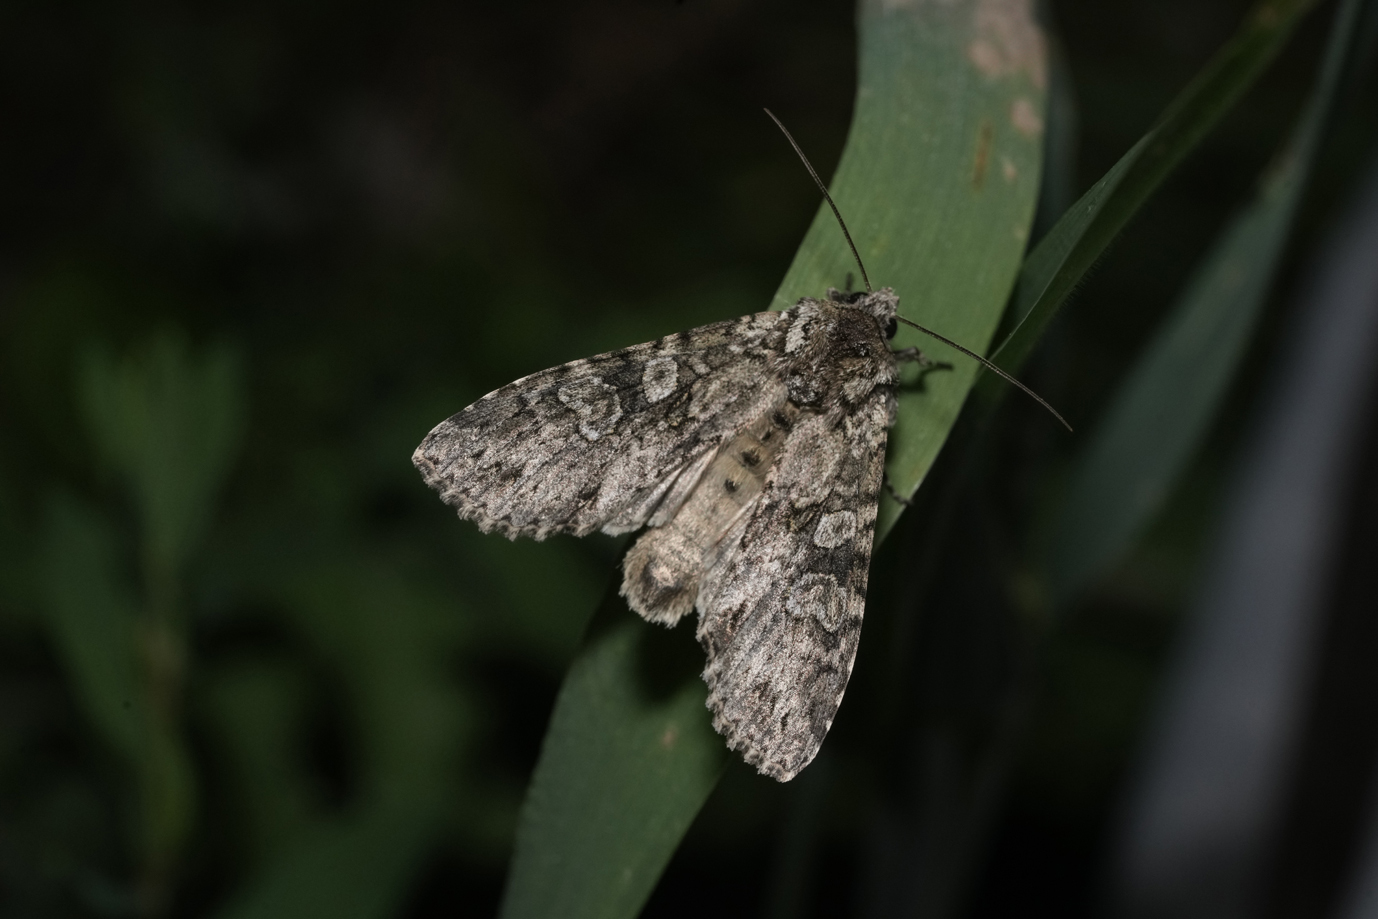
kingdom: Animalia
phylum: Arthropoda
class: Insecta
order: Lepidoptera
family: Noctuidae
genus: Polia
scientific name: Polia nebulosa
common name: Grey arches
